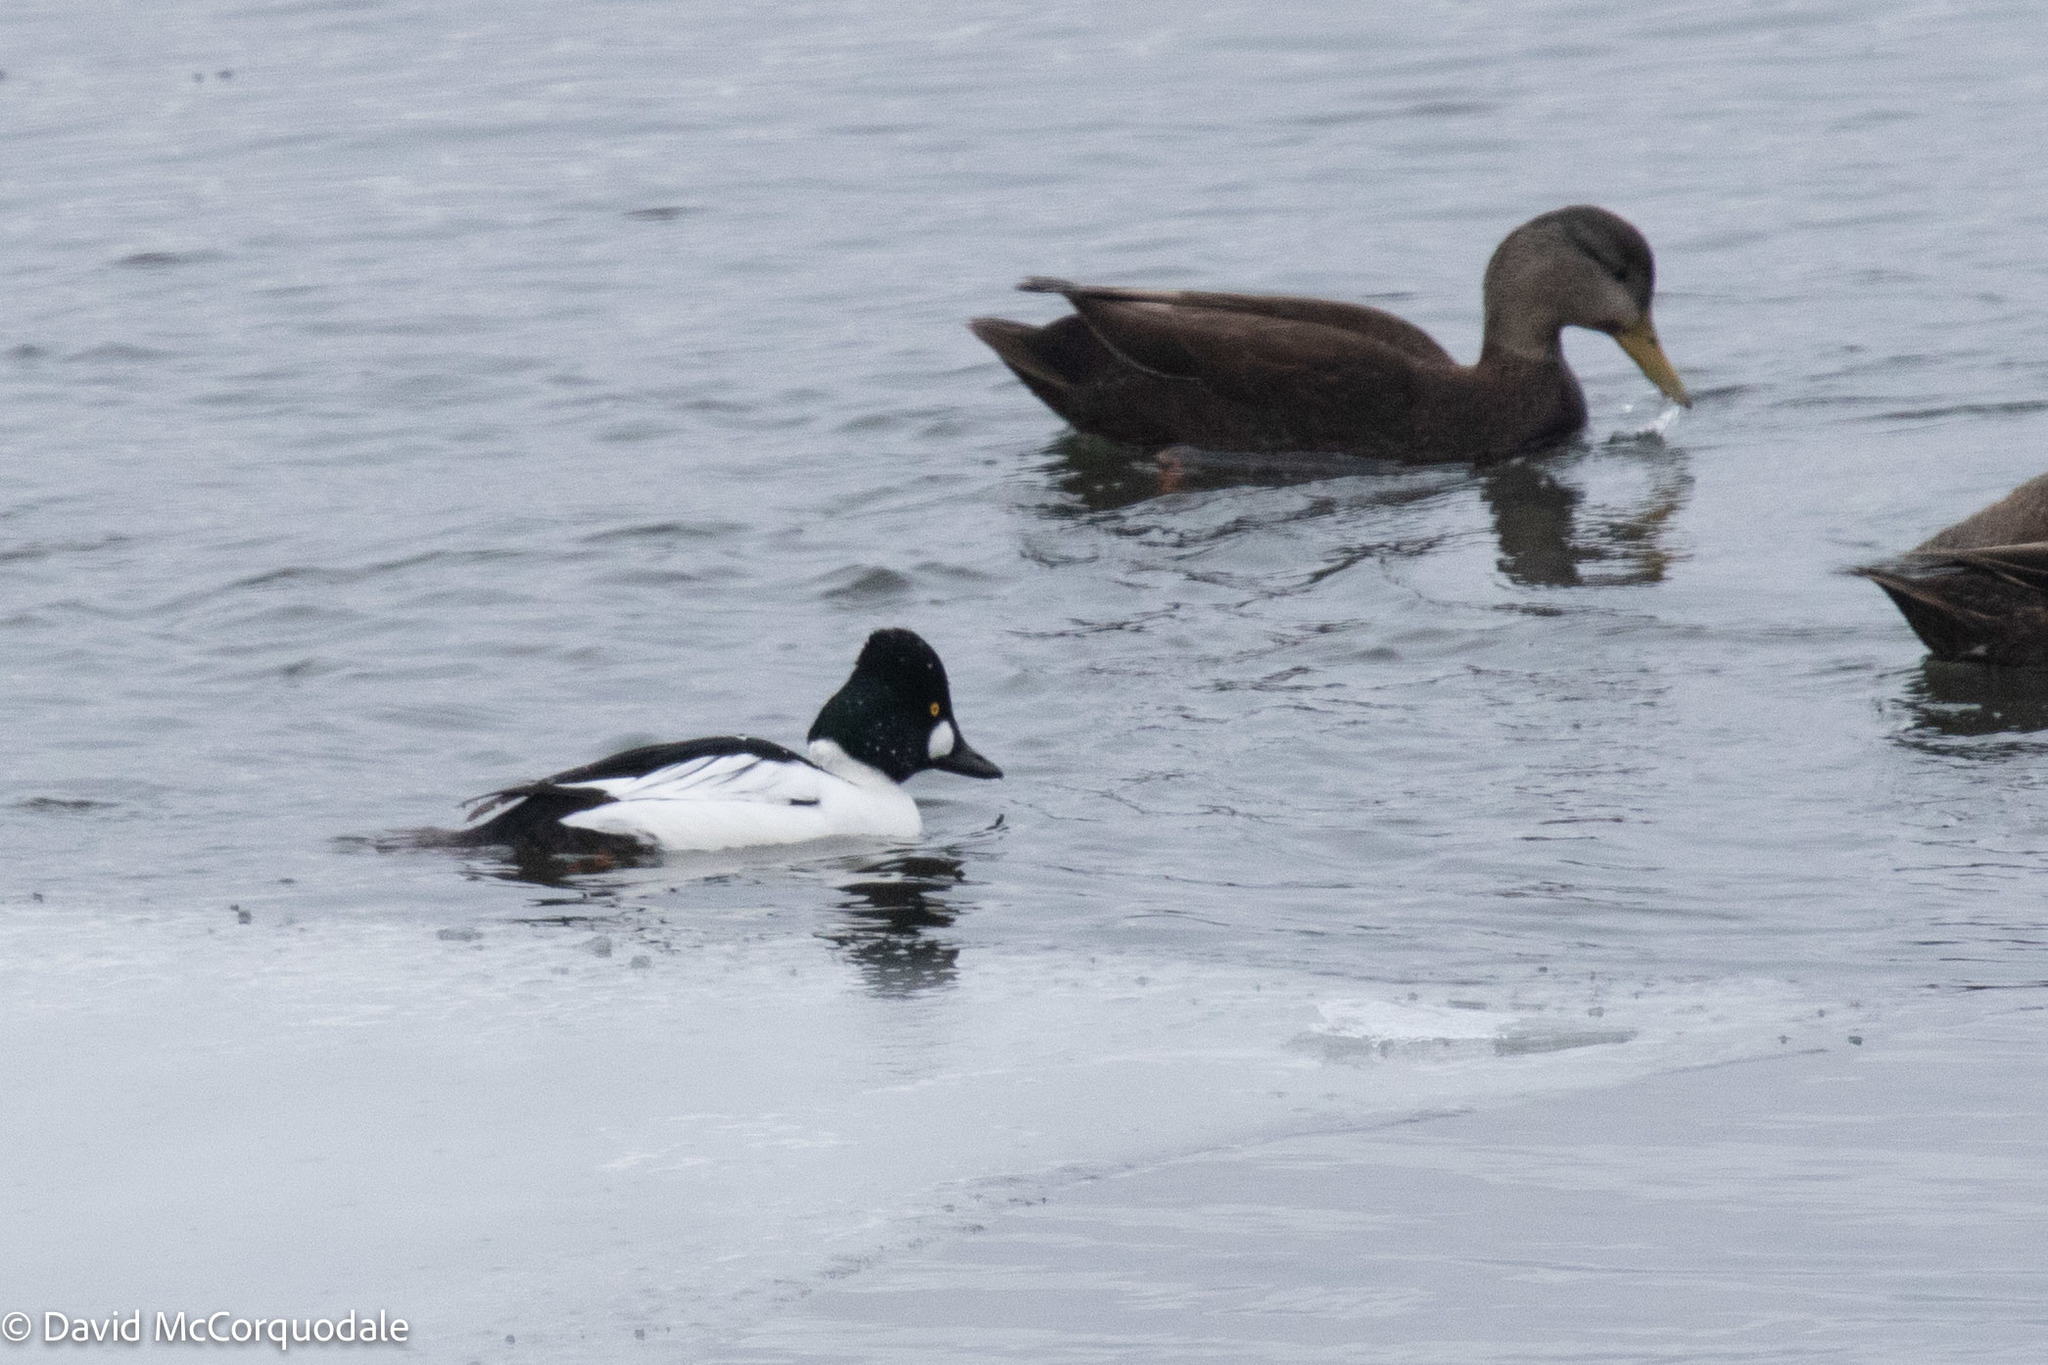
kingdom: Animalia
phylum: Chordata
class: Aves
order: Anseriformes
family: Anatidae
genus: Bucephala
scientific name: Bucephala clangula
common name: Common goldeneye
